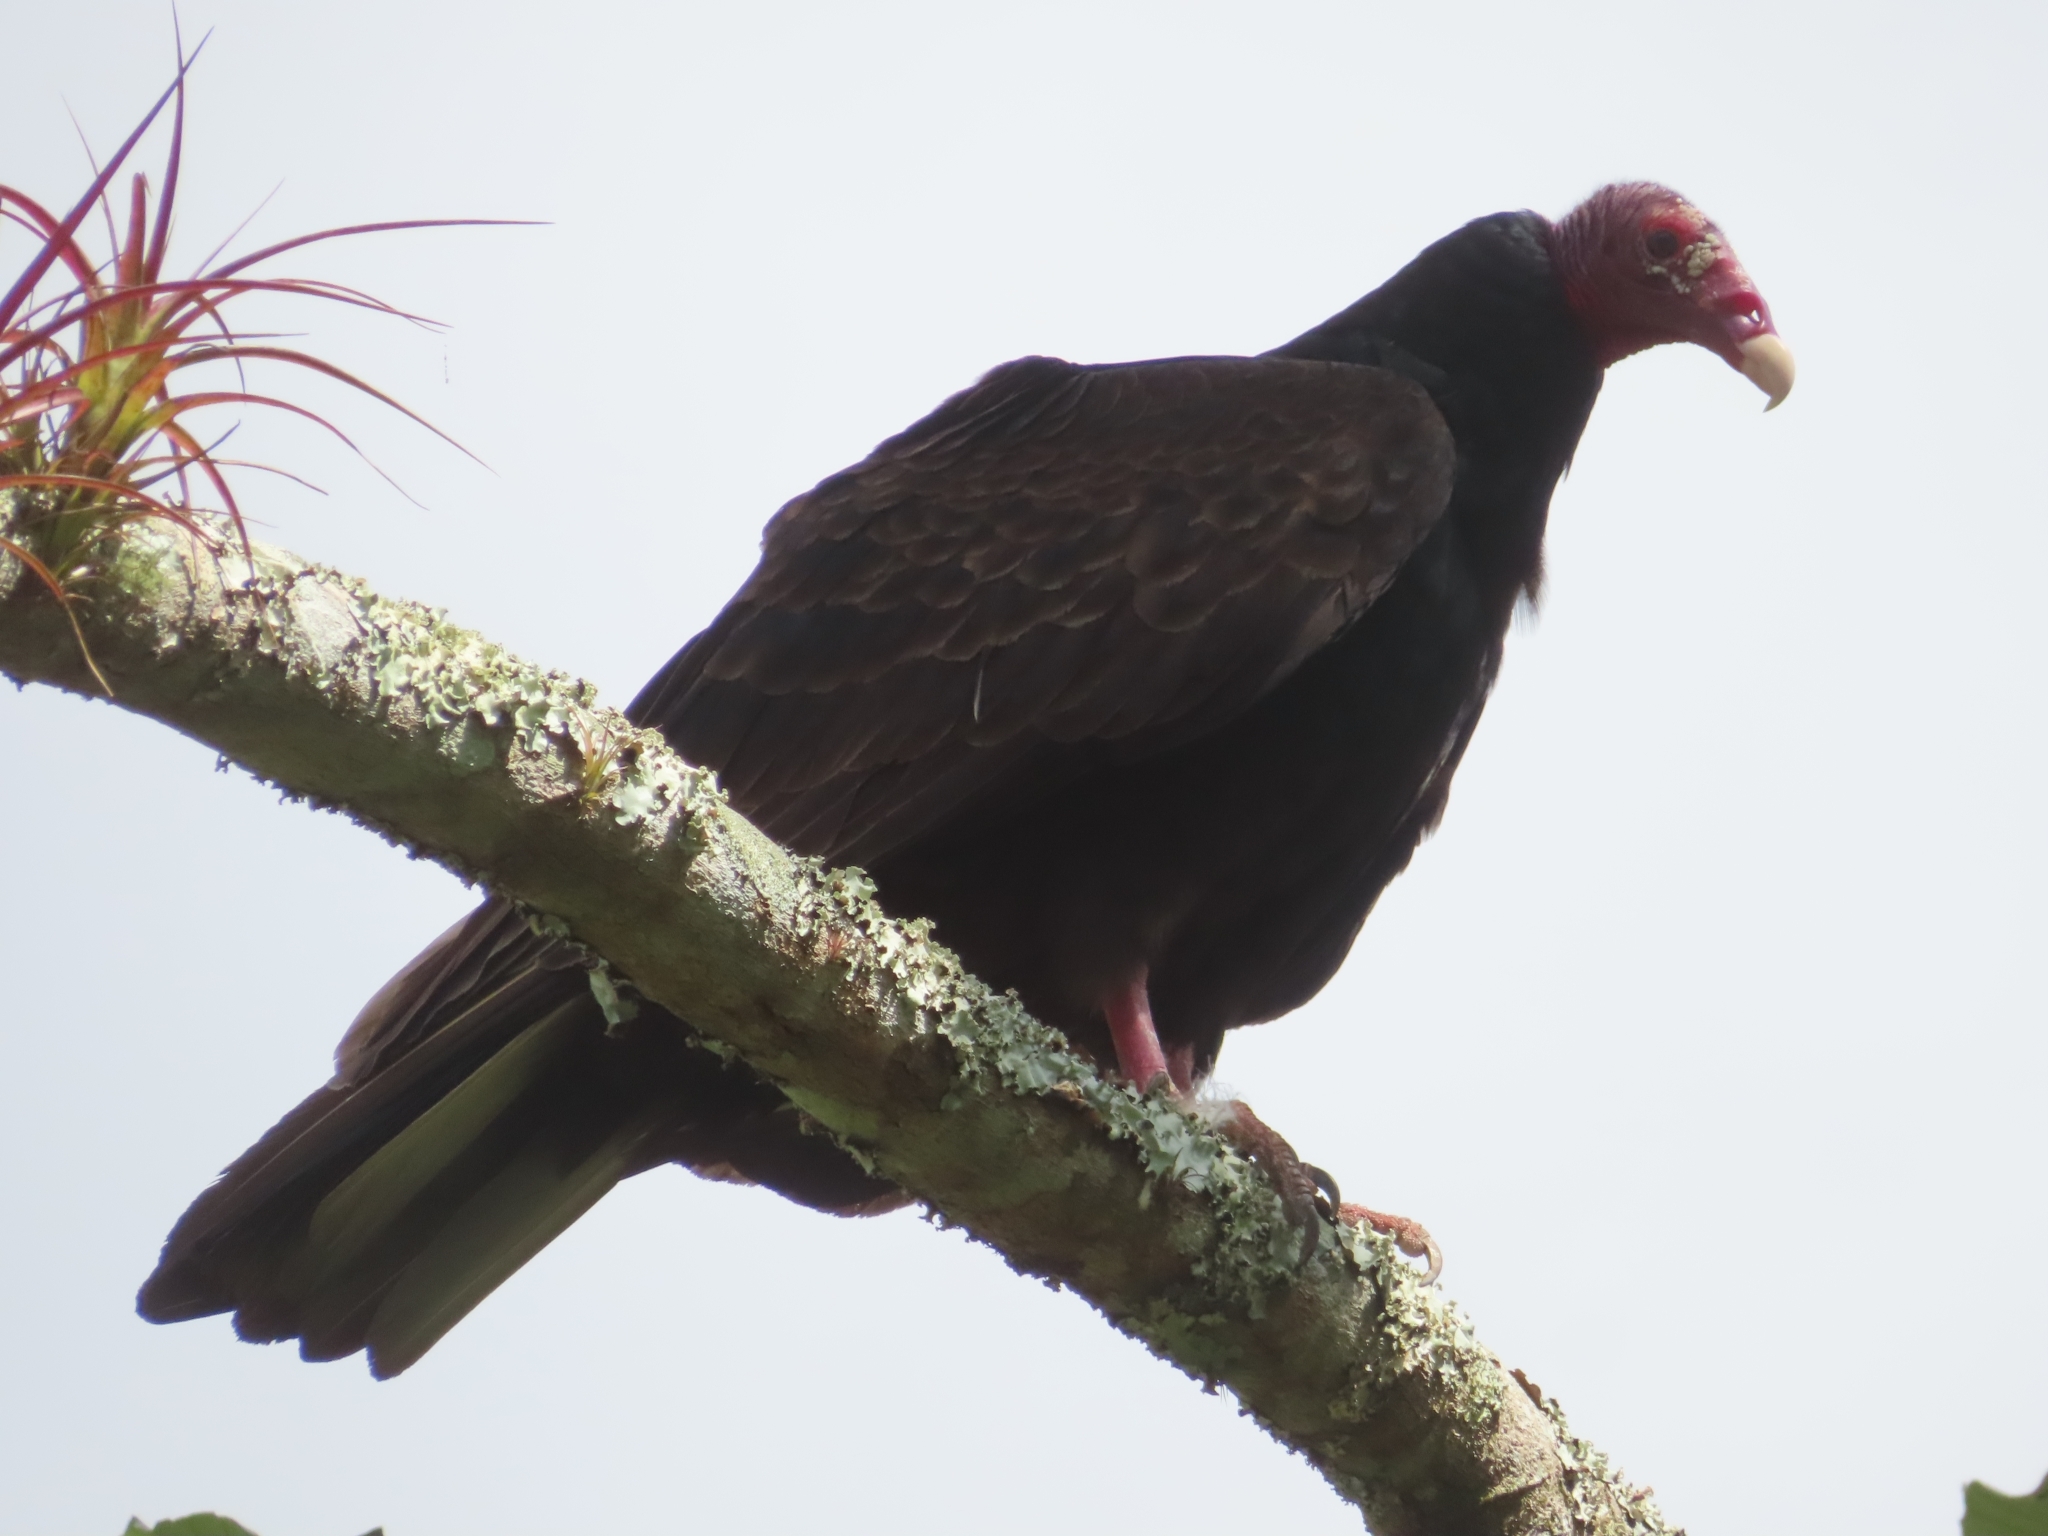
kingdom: Animalia
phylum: Chordata
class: Aves
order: Accipitriformes
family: Cathartidae
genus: Cathartes
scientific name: Cathartes aura
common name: Turkey vulture
